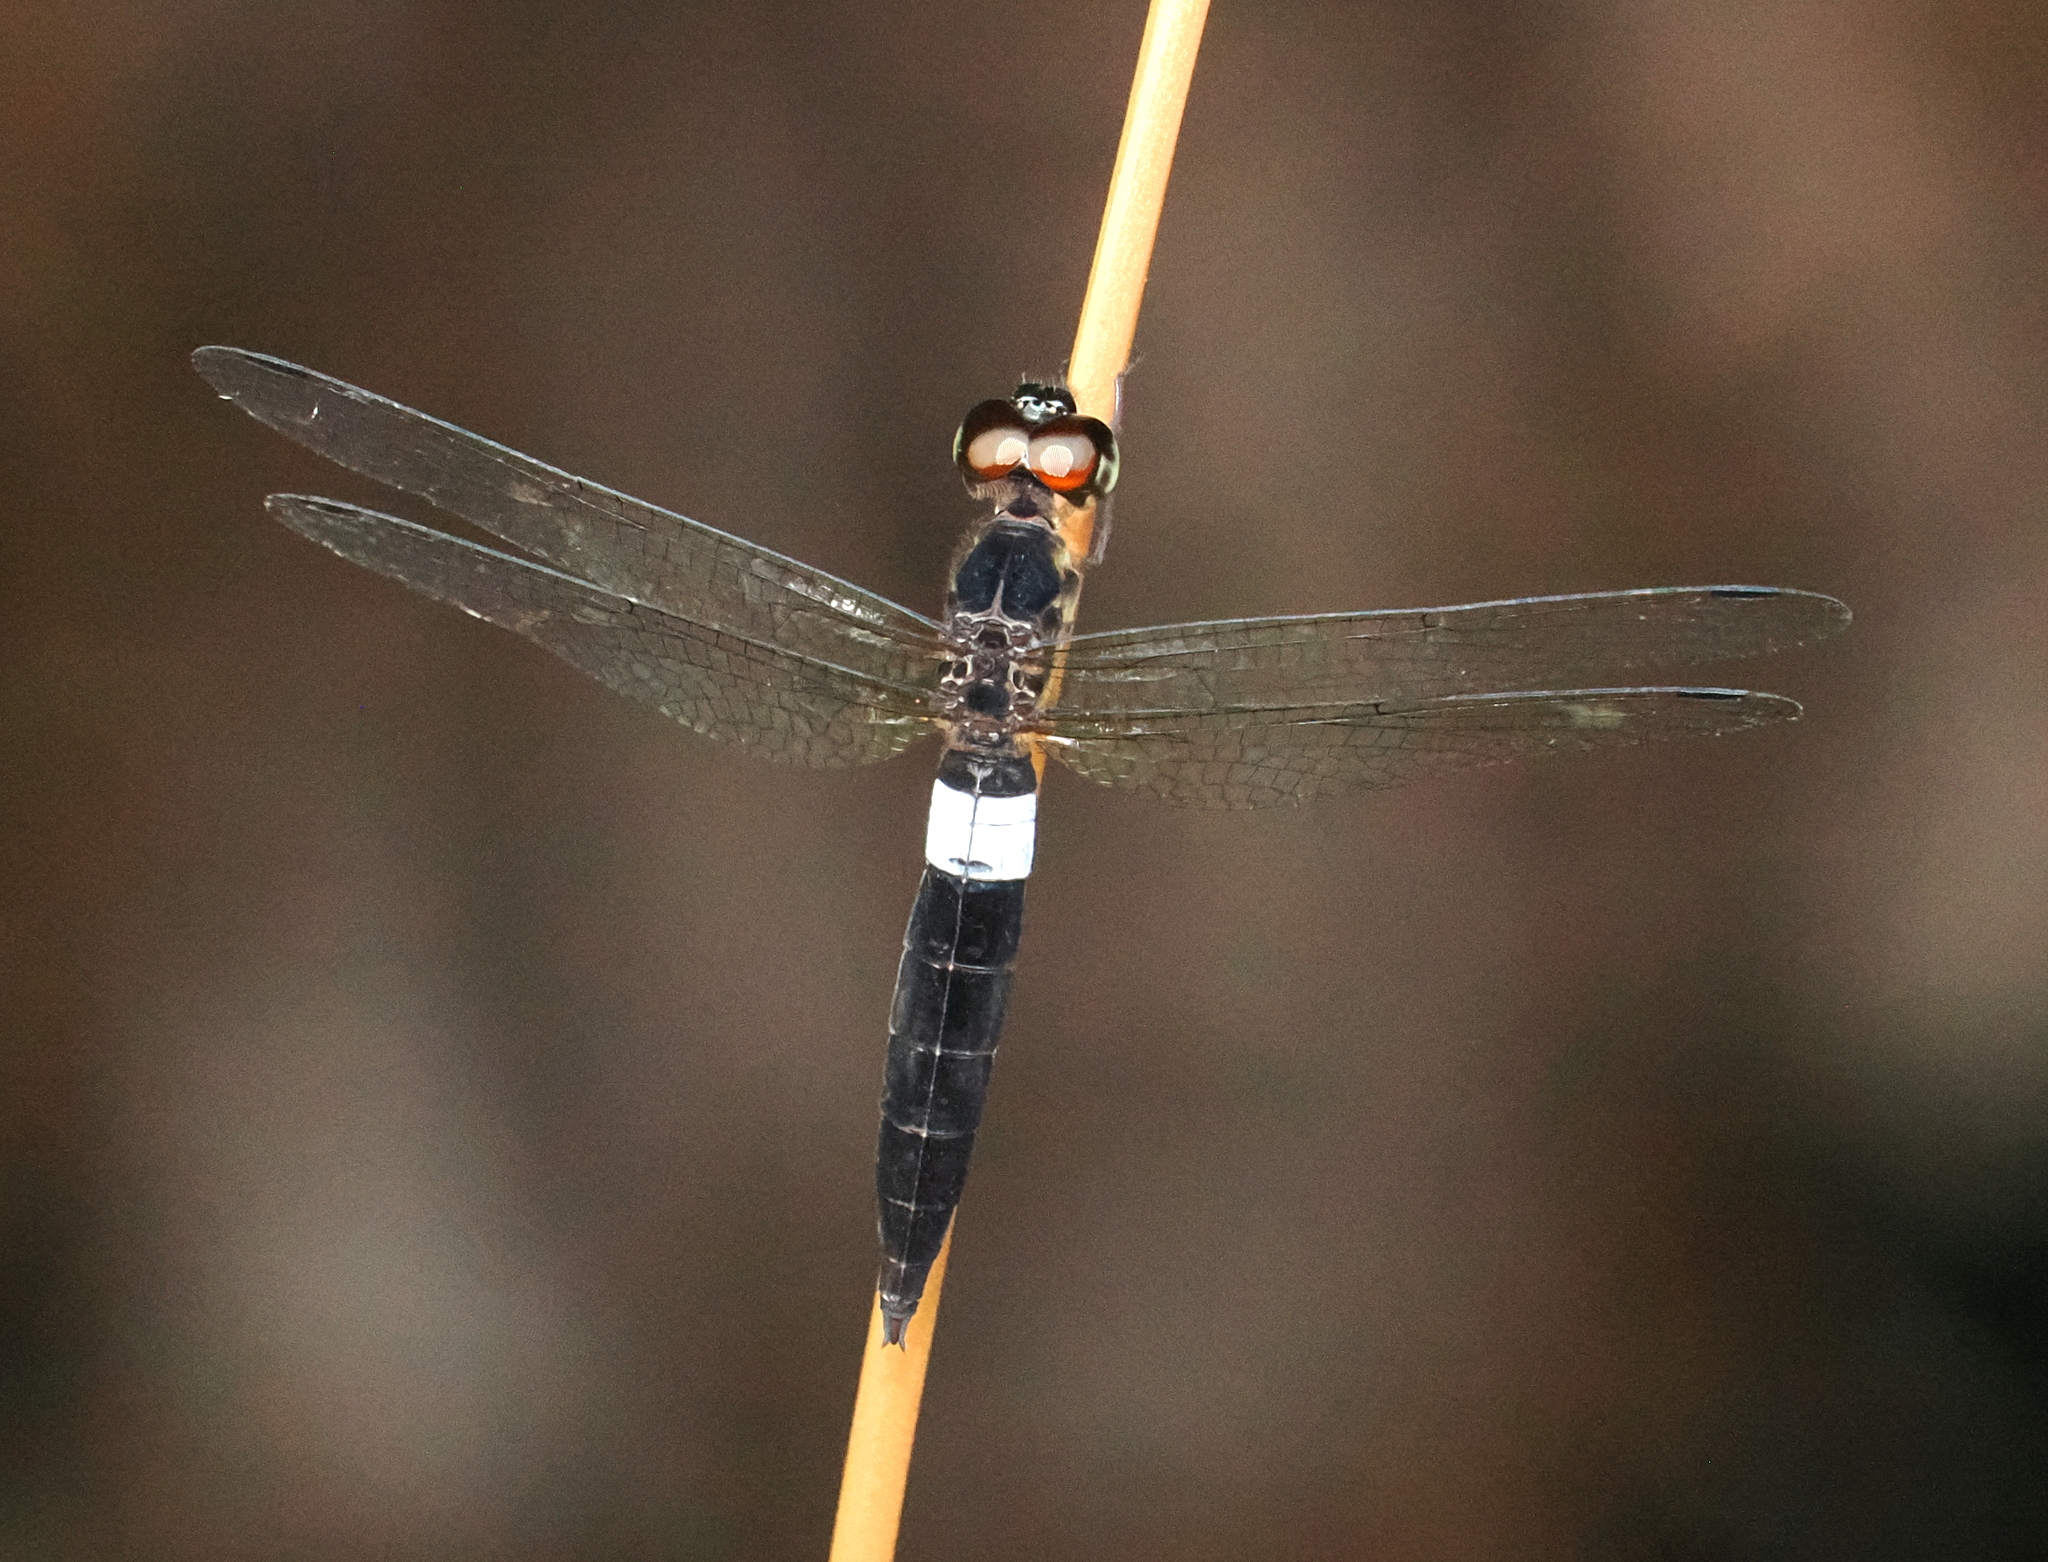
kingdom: Animalia
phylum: Arthropoda
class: Insecta
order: Odonata
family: Libellulidae
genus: Orchithemis
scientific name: Orchithemis pulcherrima
